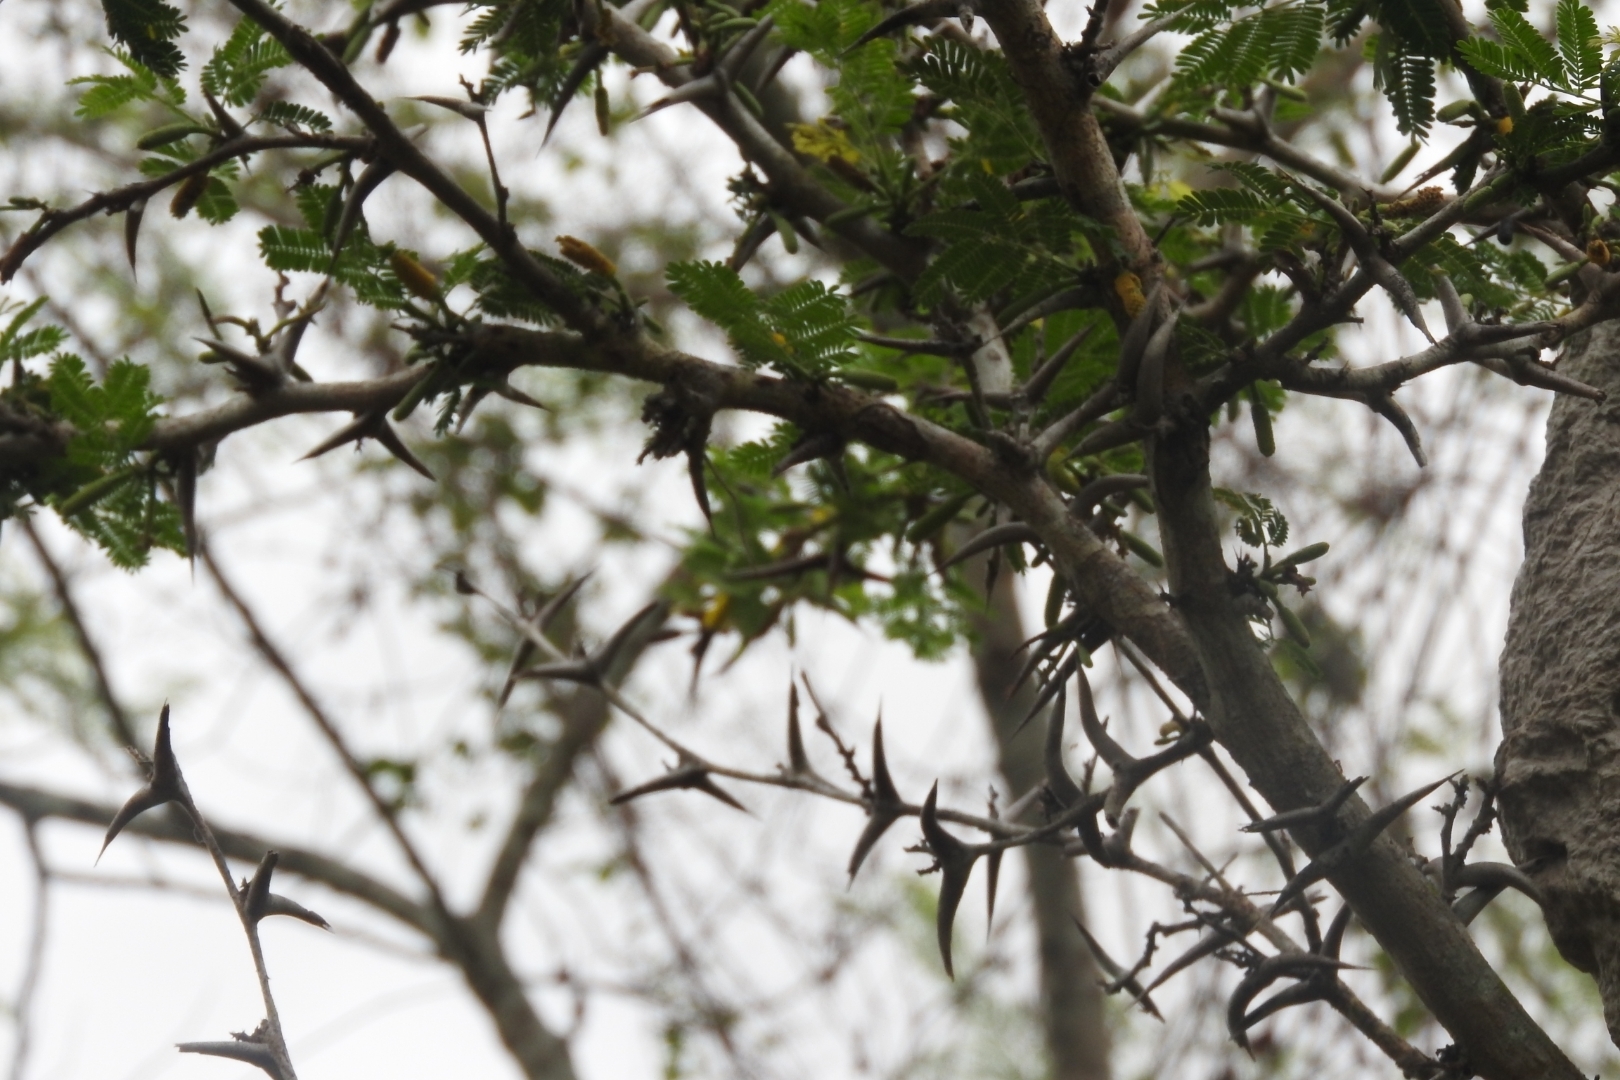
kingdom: Plantae
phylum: Tracheophyta
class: Magnoliopsida
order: Fabales
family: Fabaceae
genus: Vachellia
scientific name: Vachellia cornigera
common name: Bullhorn wattle
